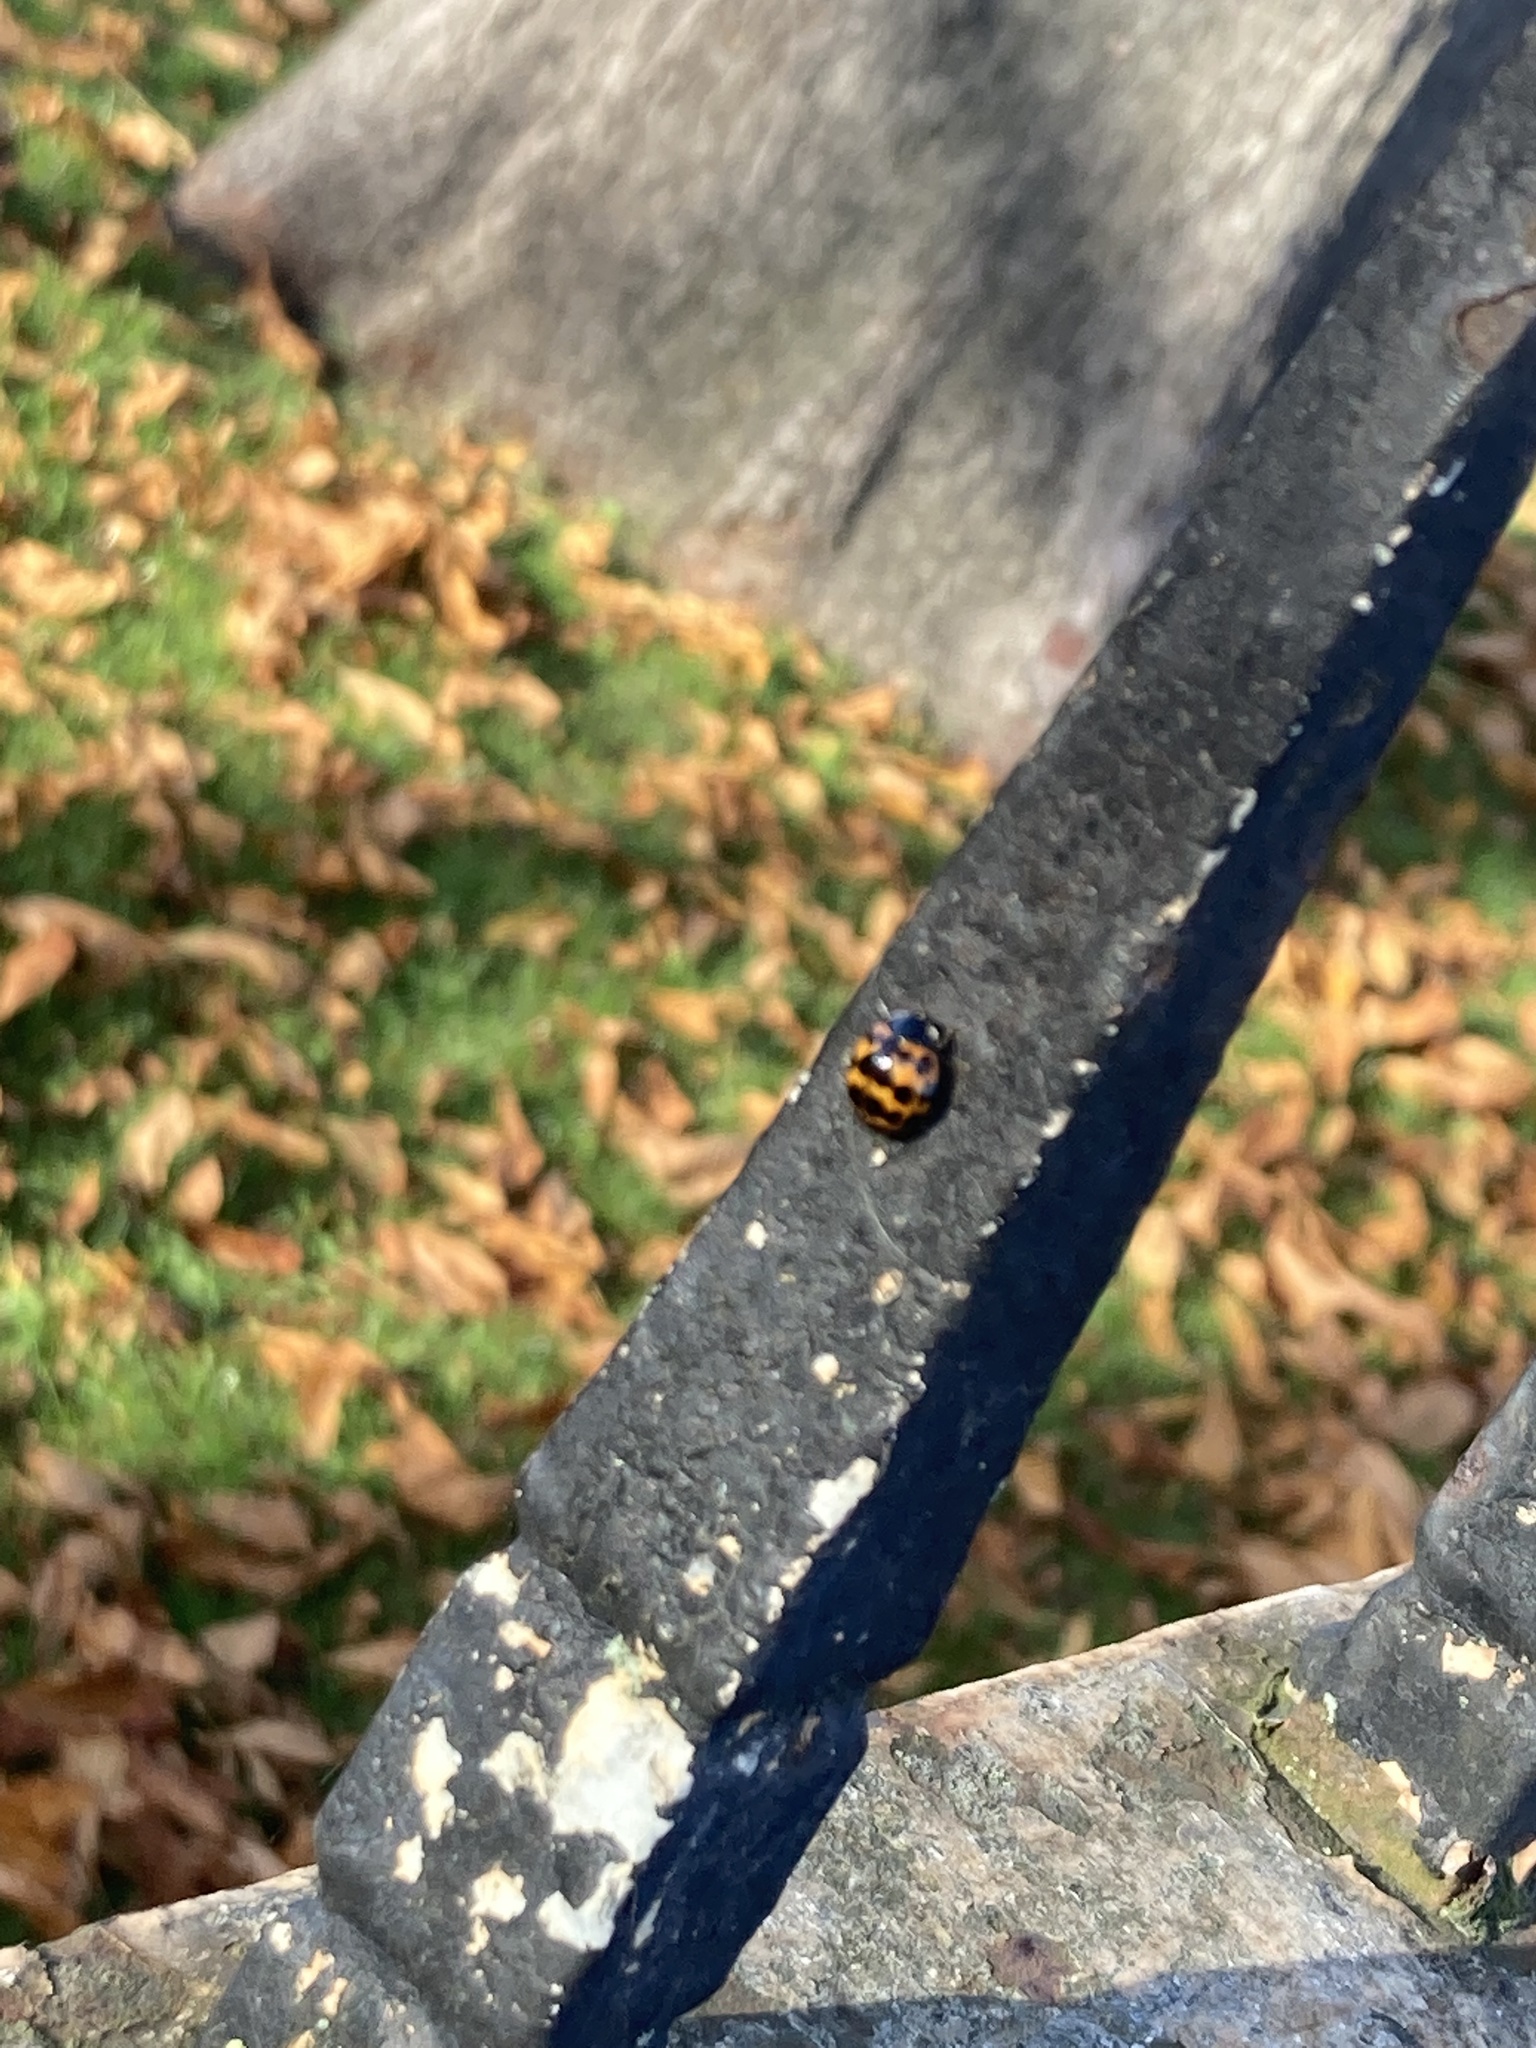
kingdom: Animalia
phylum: Arthropoda
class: Insecta
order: Coleoptera
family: Coccinellidae
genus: Harmonia
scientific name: Harmonia axyridis
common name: Harlequin ladybird
